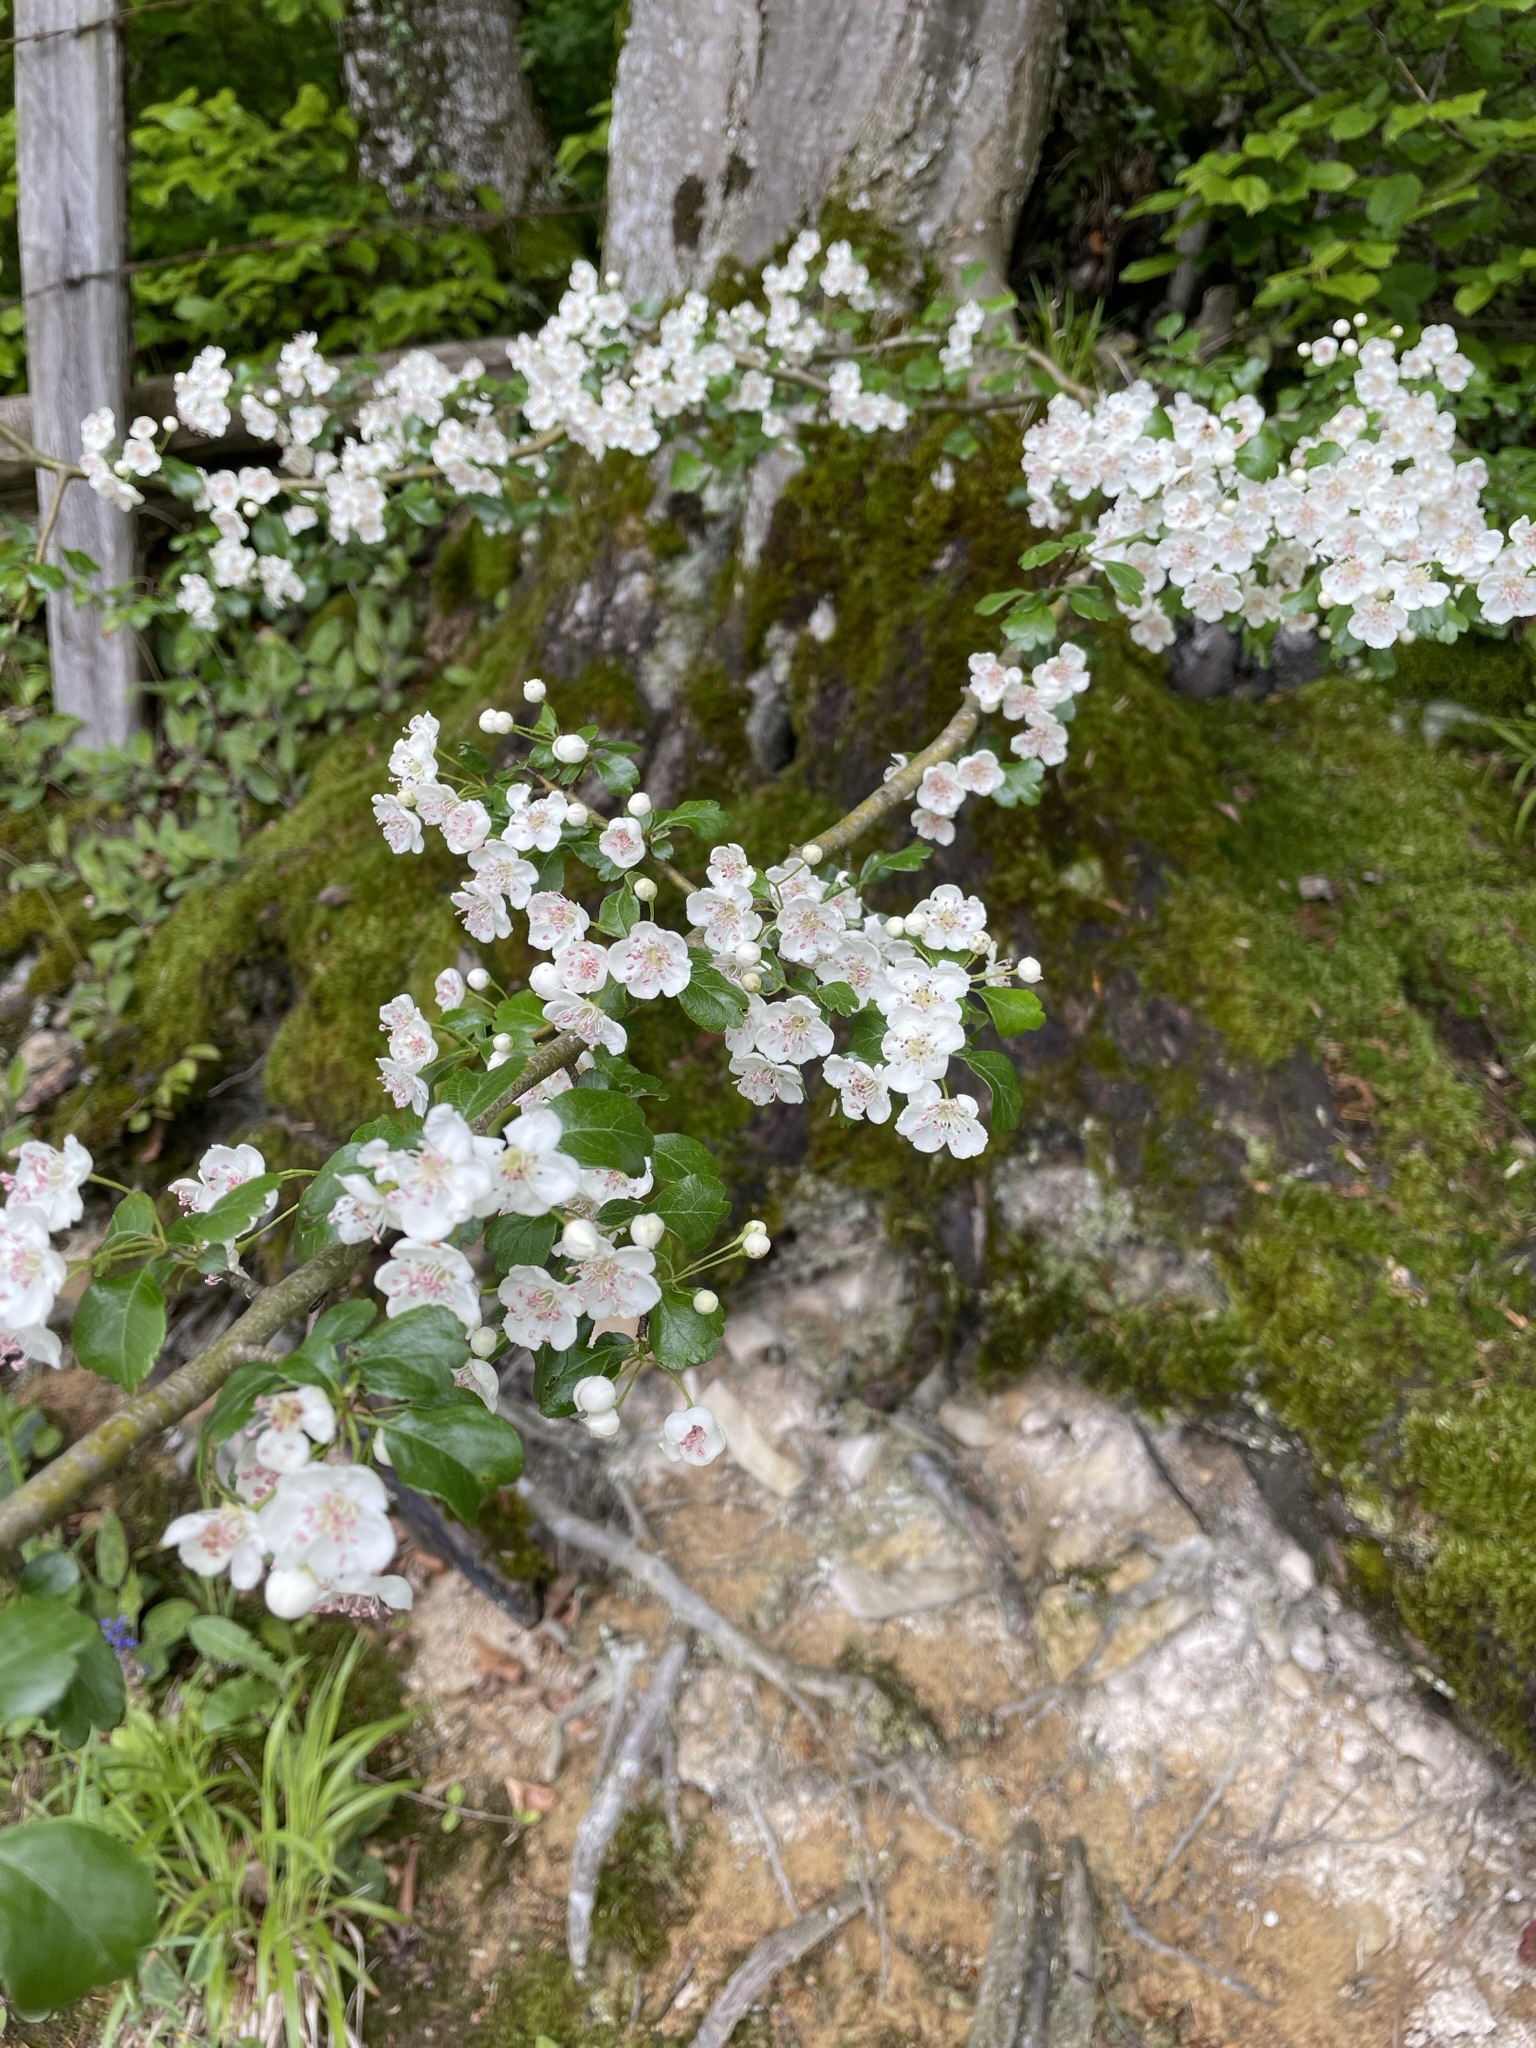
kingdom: Plantae
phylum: Tracheophyta
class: Magnoliopsida
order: Rosales
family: Rosaceae
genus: Crataegus
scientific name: Crataegus laevigata
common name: Midland hawthorn
